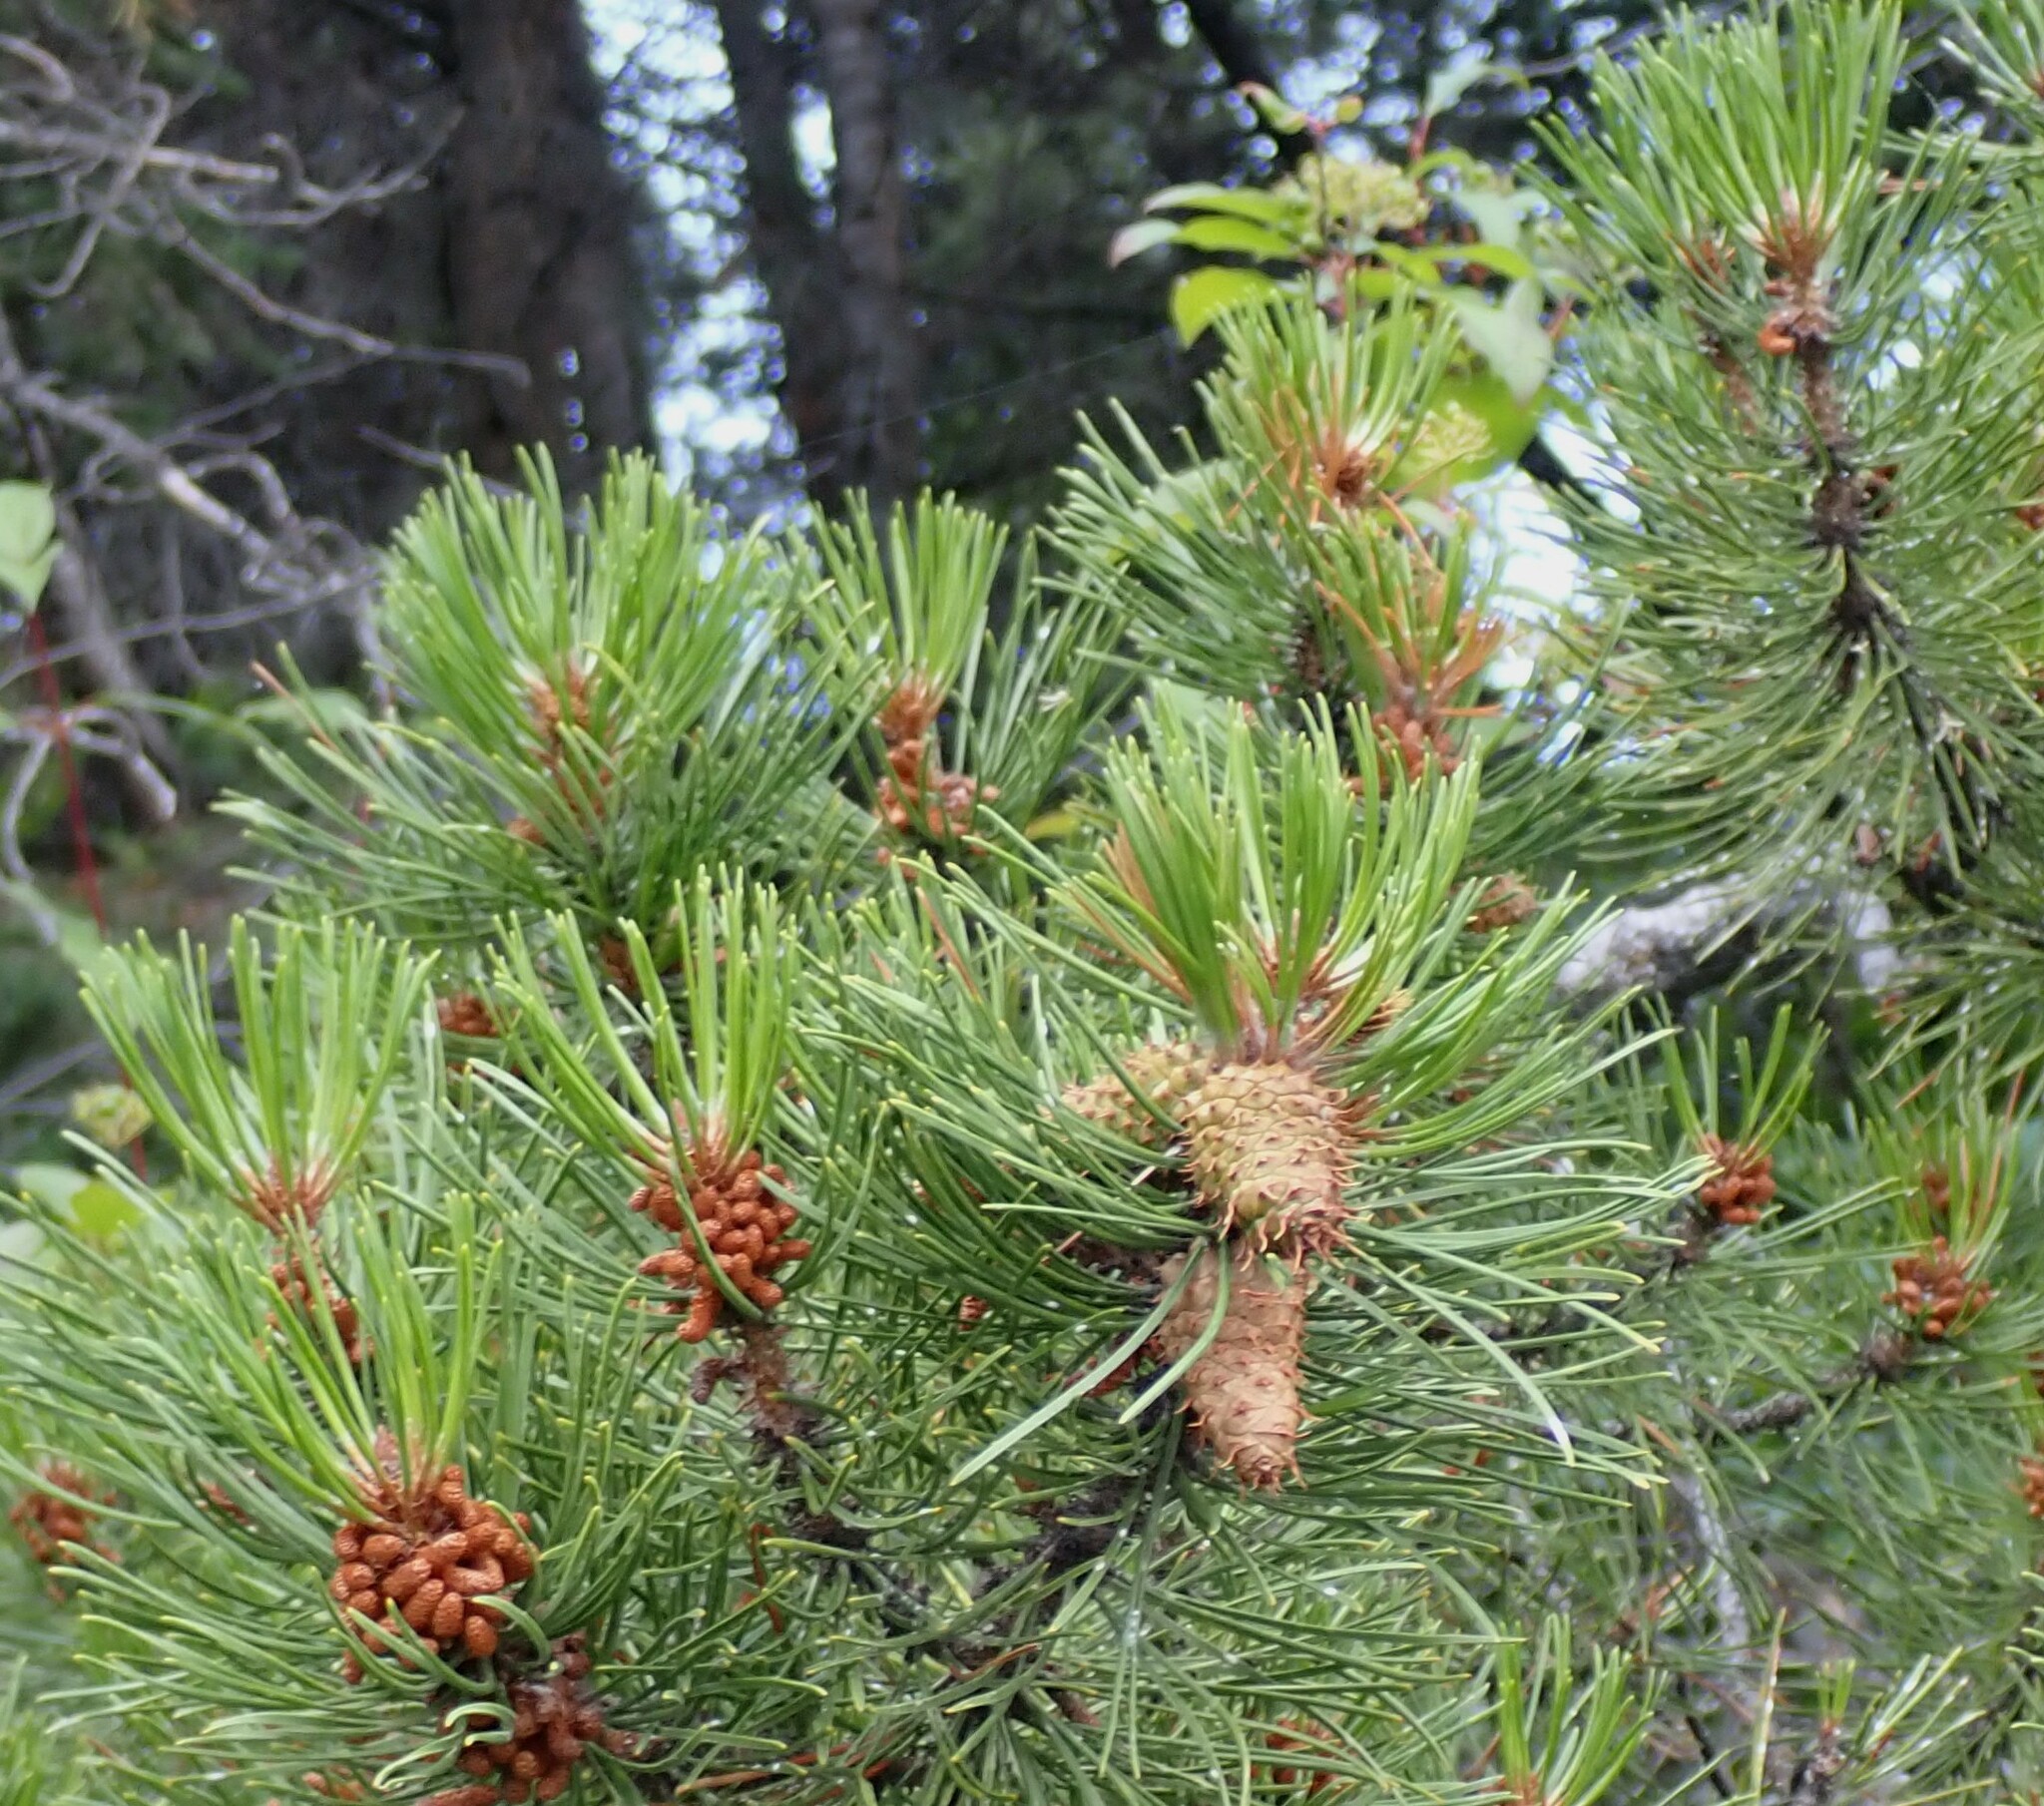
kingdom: Plantae
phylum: Tracheophyta
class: Pinopsida
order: Pinales
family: Pinaceae
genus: Pinus
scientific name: Pinus contorta
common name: Lodgepole pine
